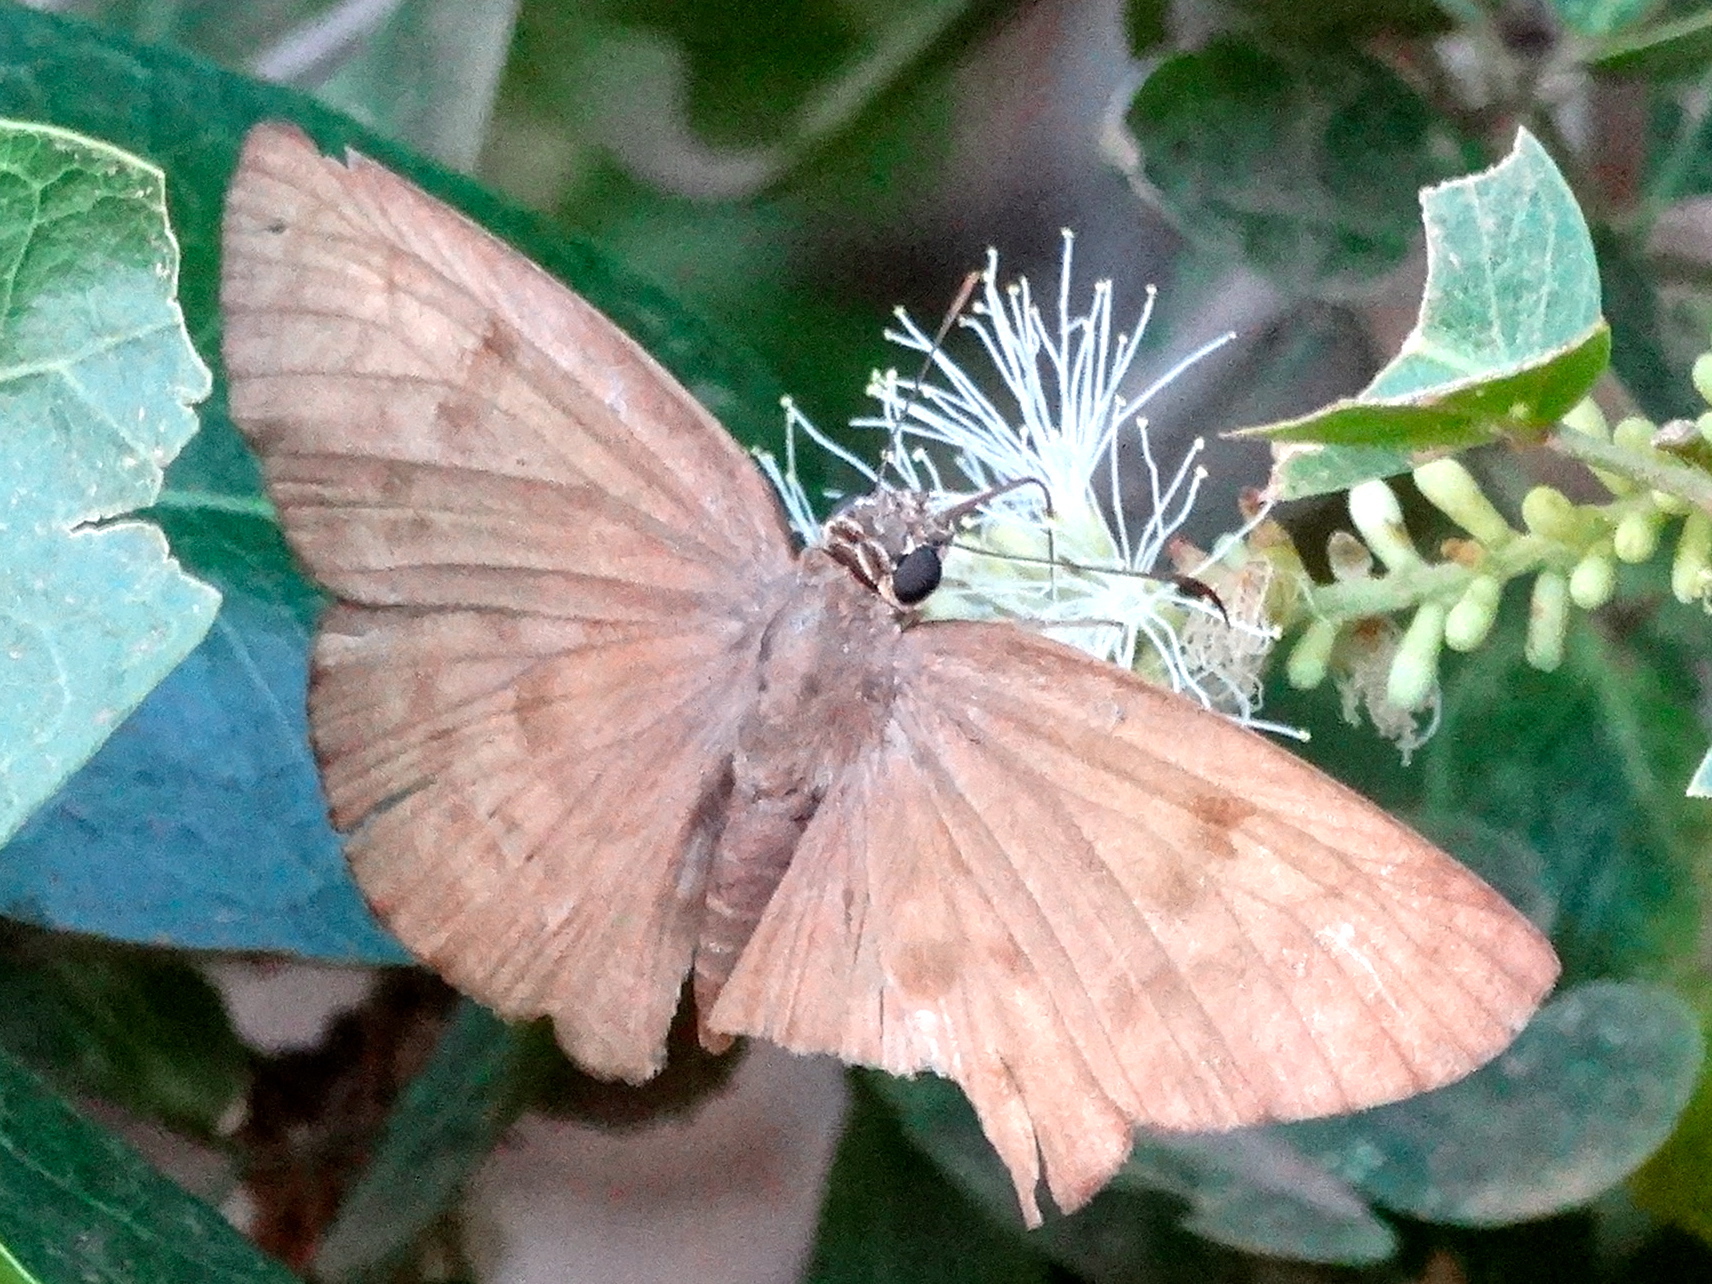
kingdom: Animalia
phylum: Arthropoda
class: Insecta
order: Lepidoptera
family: Hesperiidae
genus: Pyrginae
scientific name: Pyrginae
